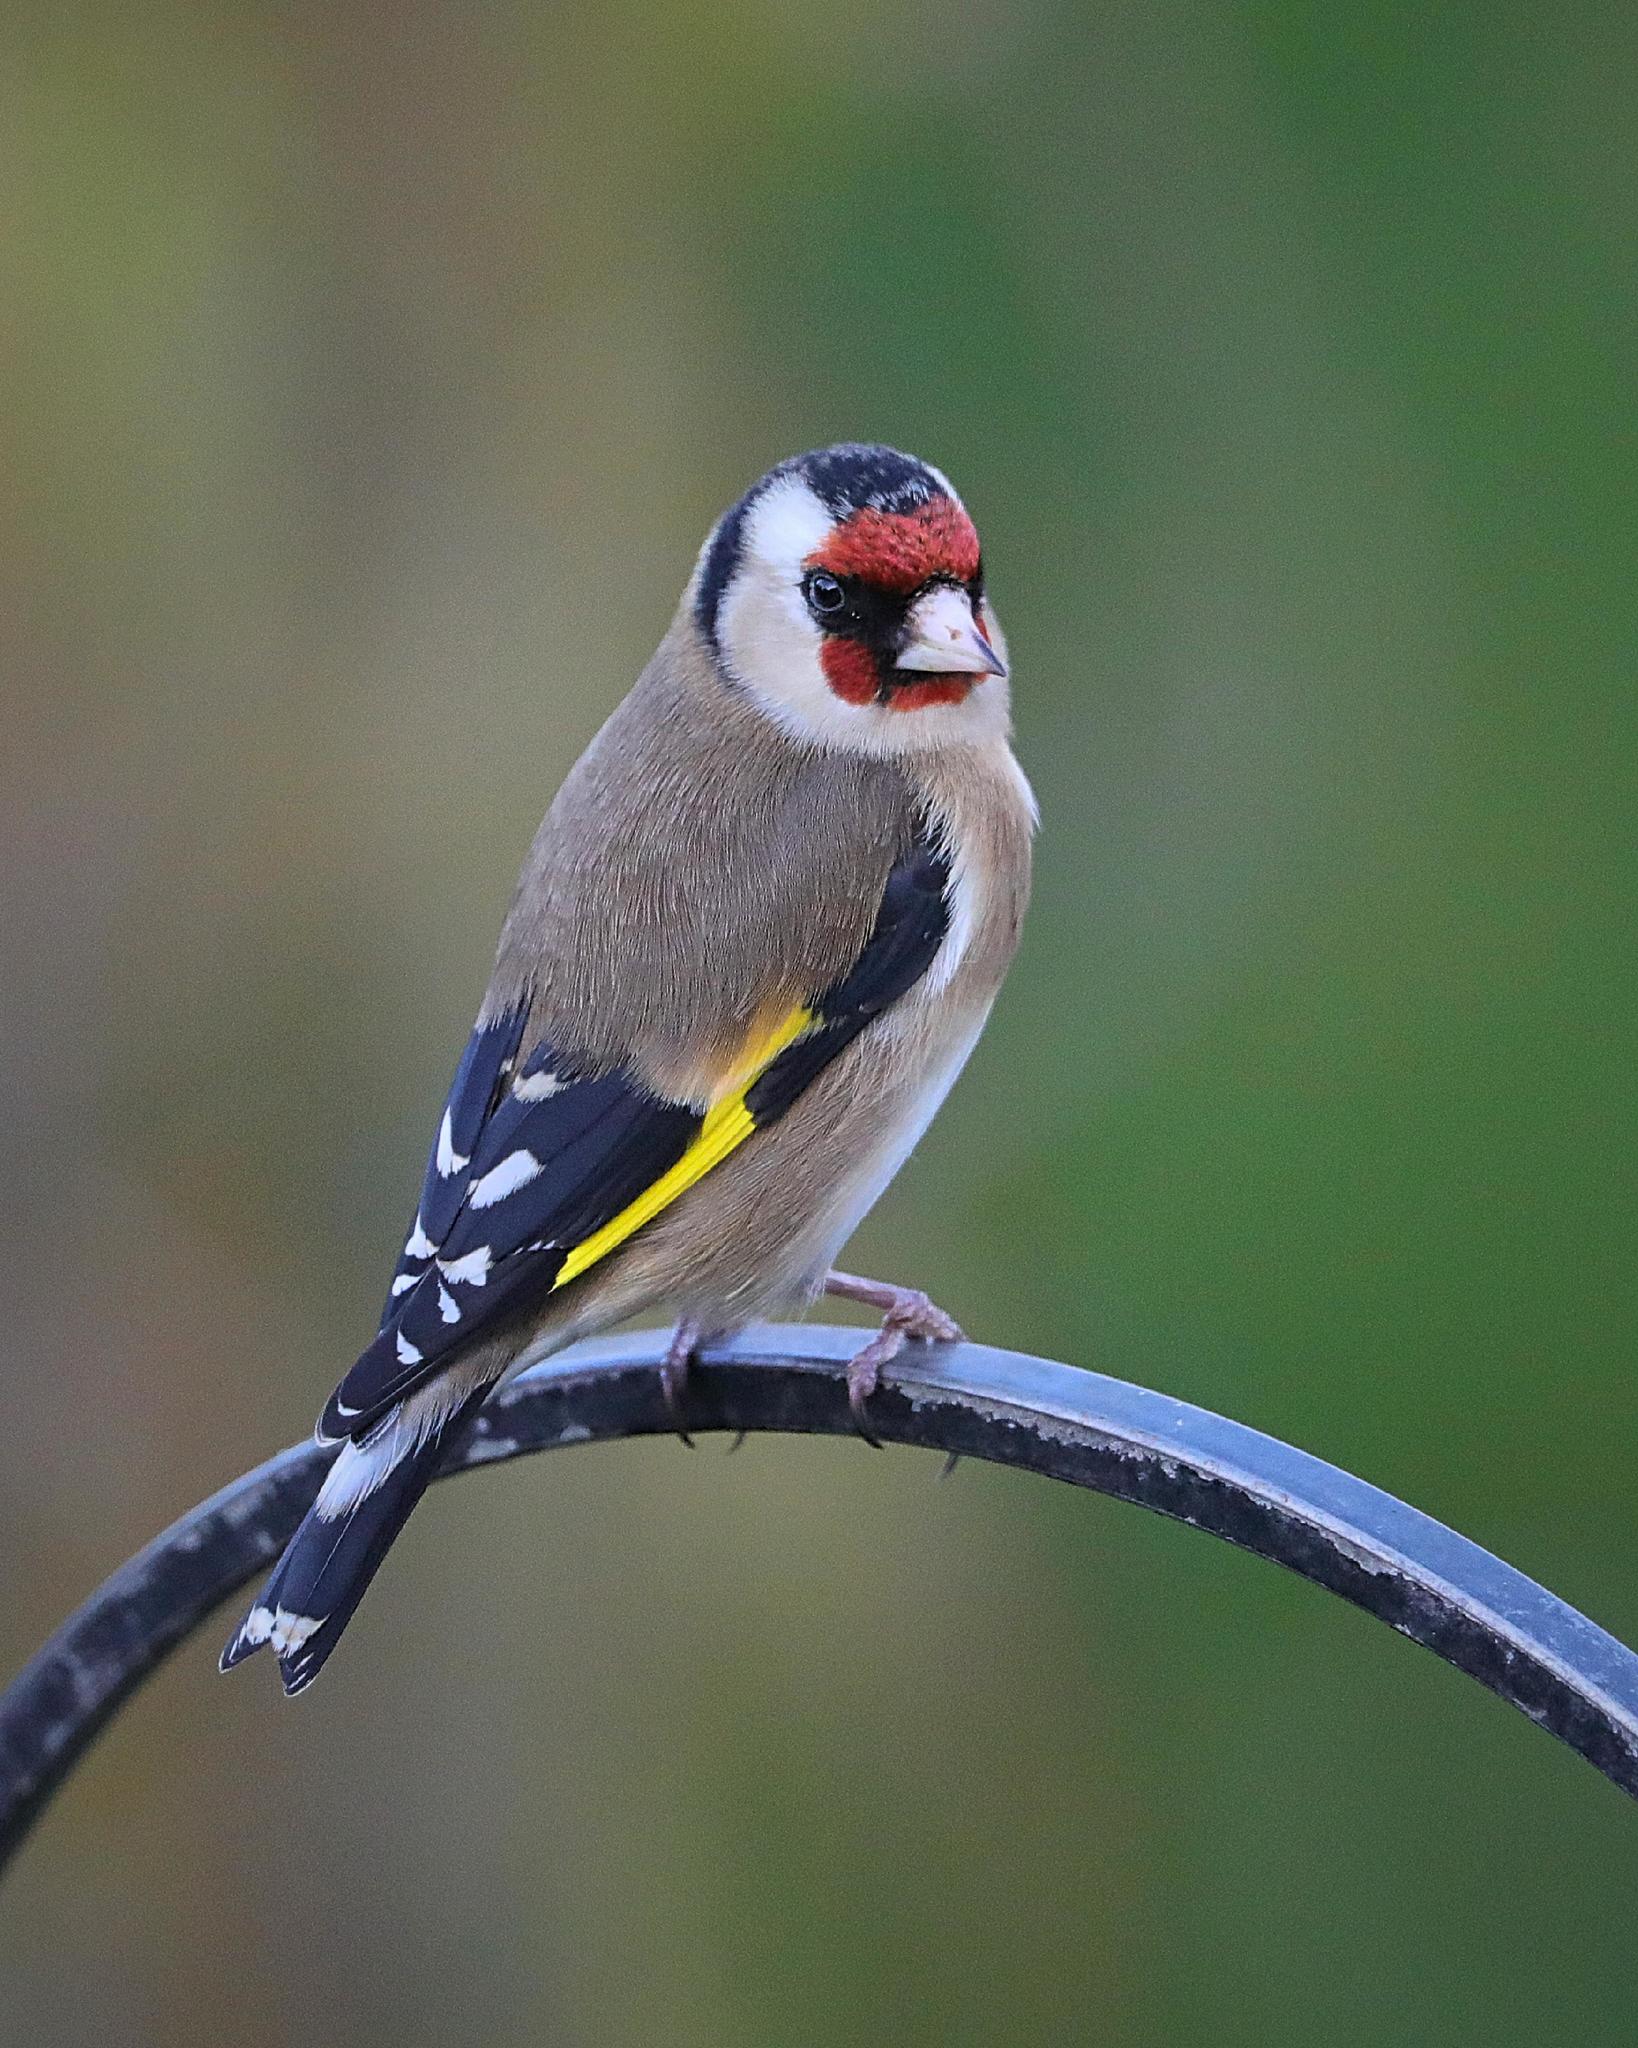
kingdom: Animalia
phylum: Chordata
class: Aves
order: Passeriformes
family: Fringillidae
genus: Carduelis
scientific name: Carduelis carduelis
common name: European goldfinch
